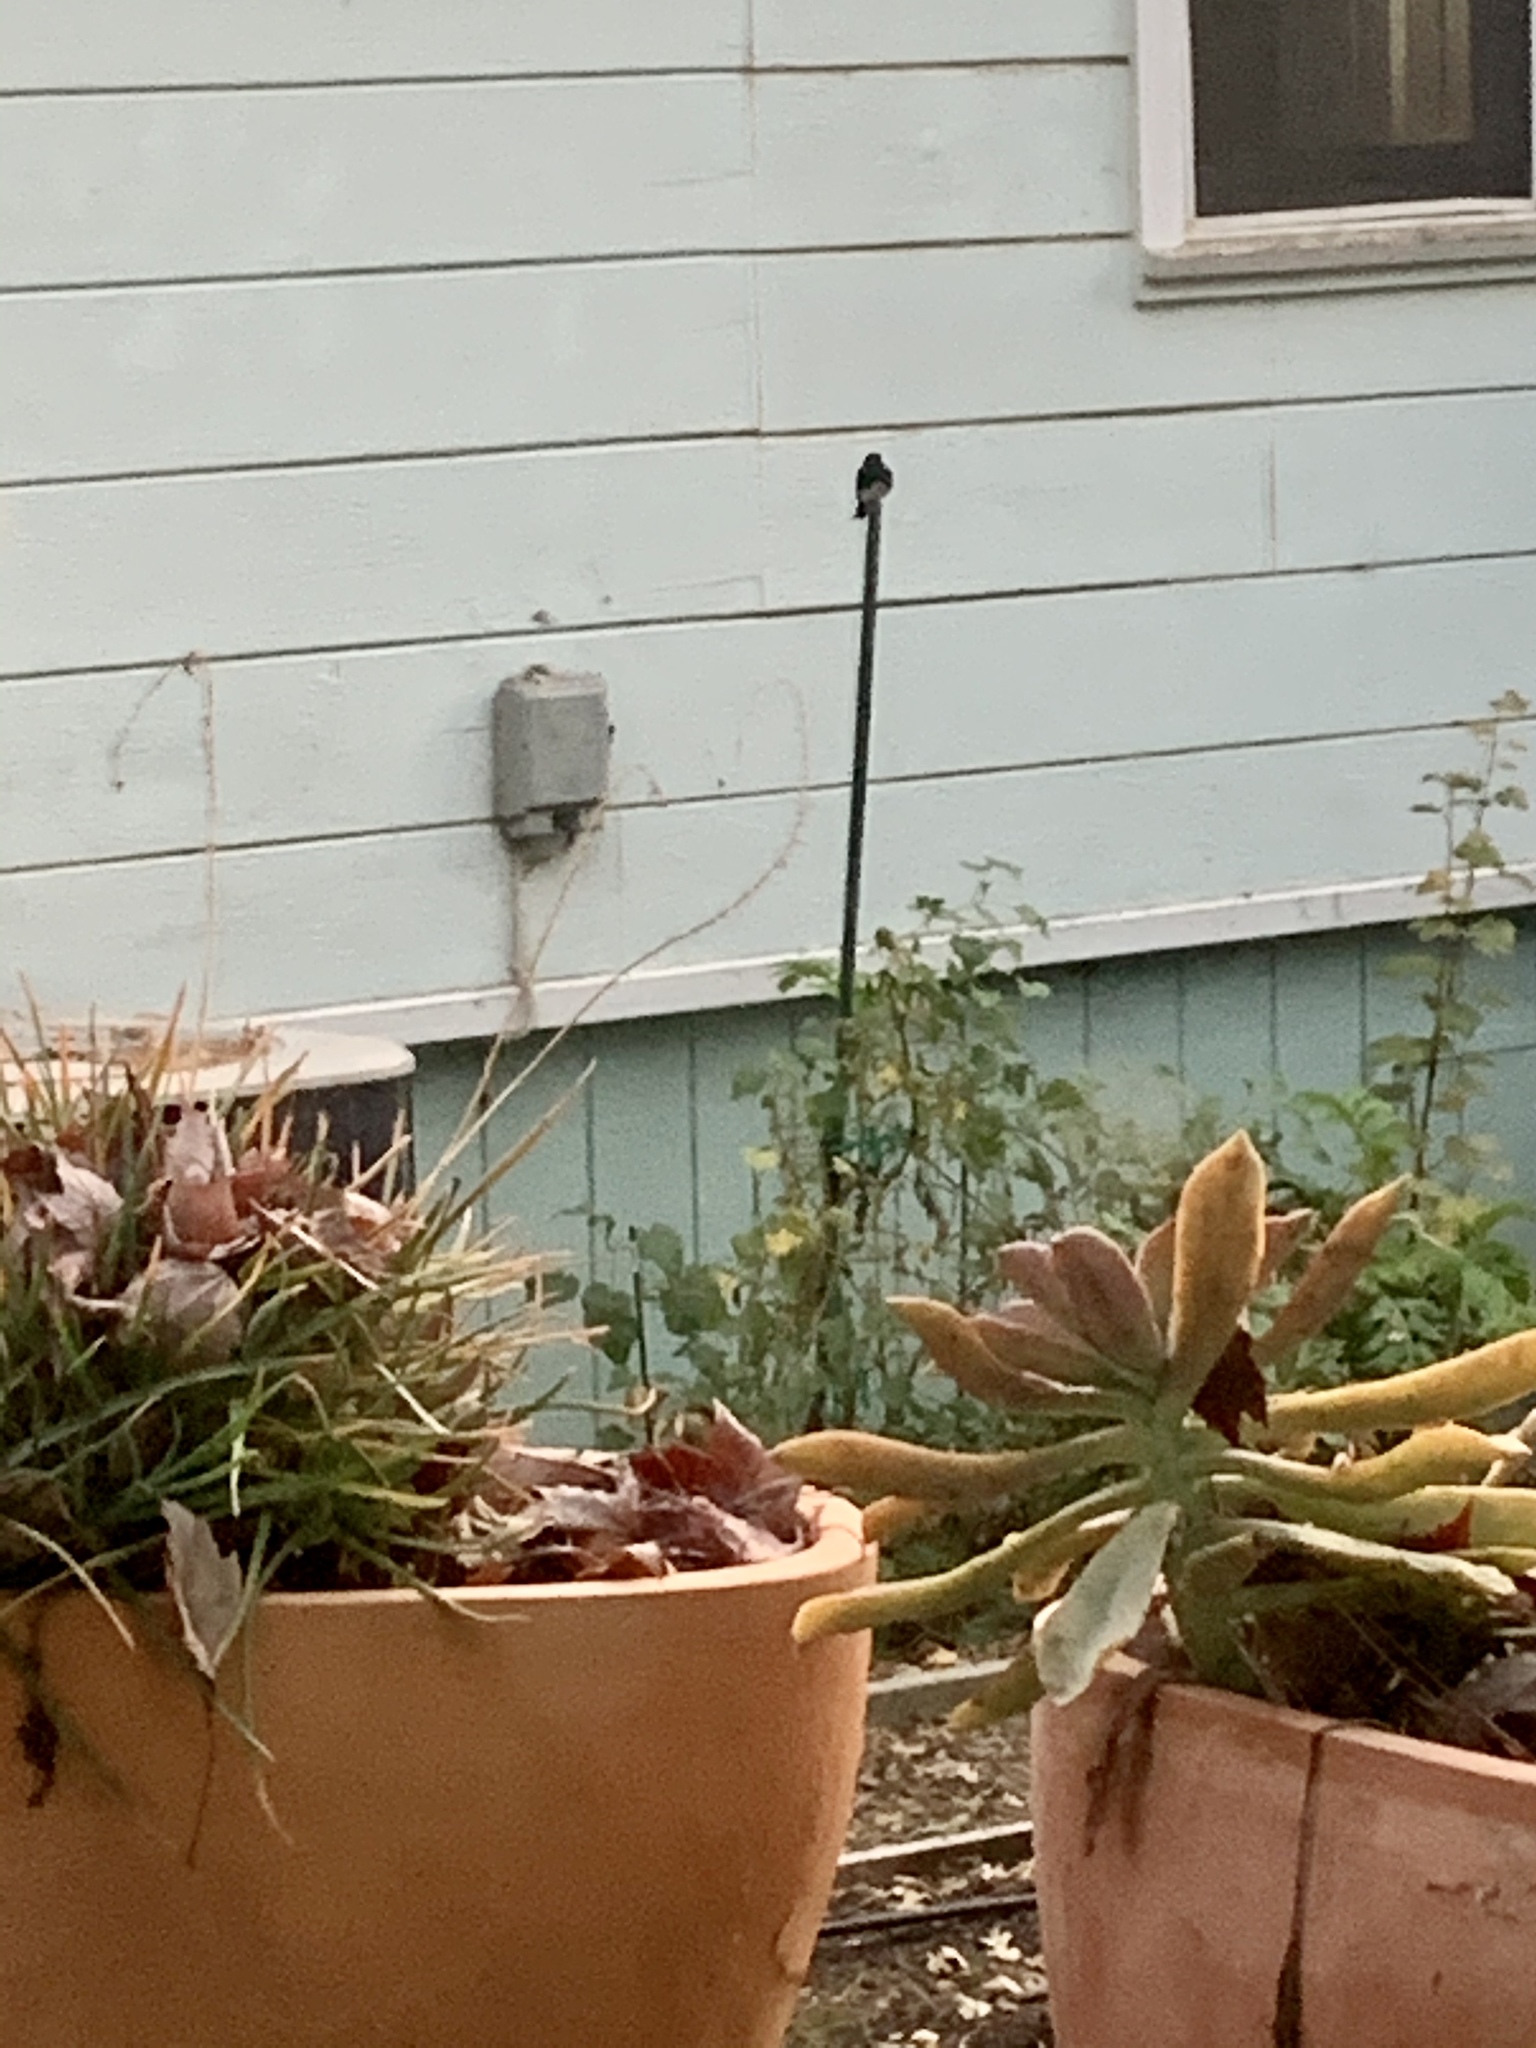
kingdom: Animalia
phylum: Chordata
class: Aves
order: Passeriformes
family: Tyrannidae
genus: Sayornis
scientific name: Sayornis nigricans
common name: Black phoebe
